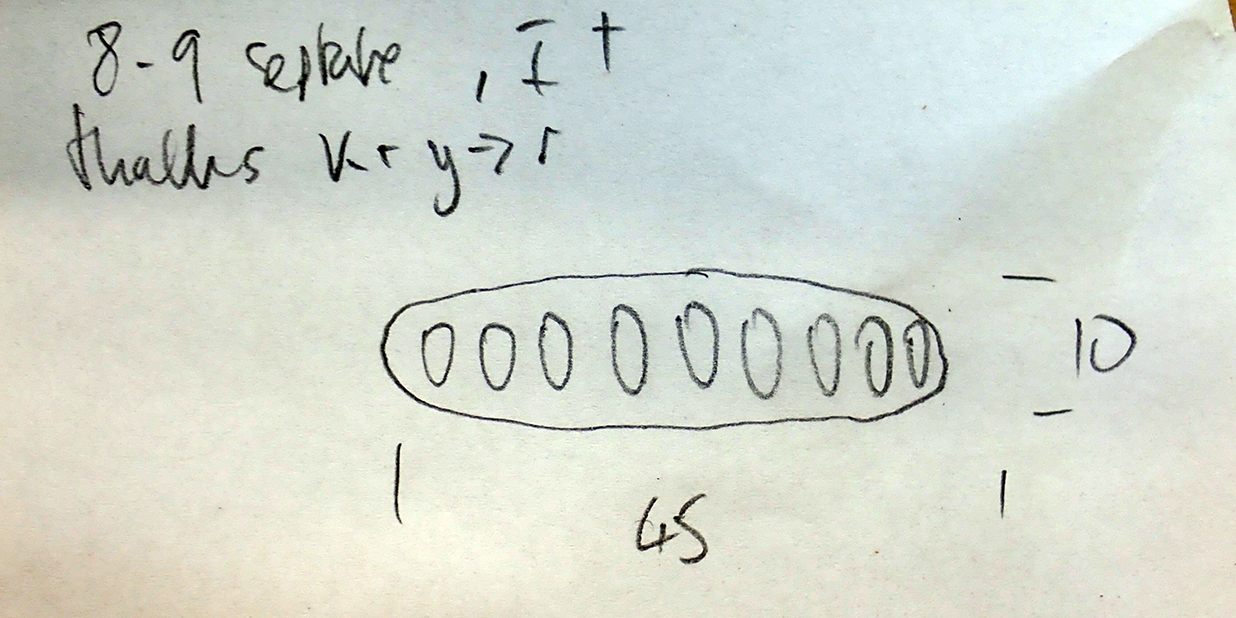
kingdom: Fungi
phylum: Ascomycota
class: Lecanoromycetes
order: Ostropales
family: Graphidaceae
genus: Graphis
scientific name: Graphis elegans
